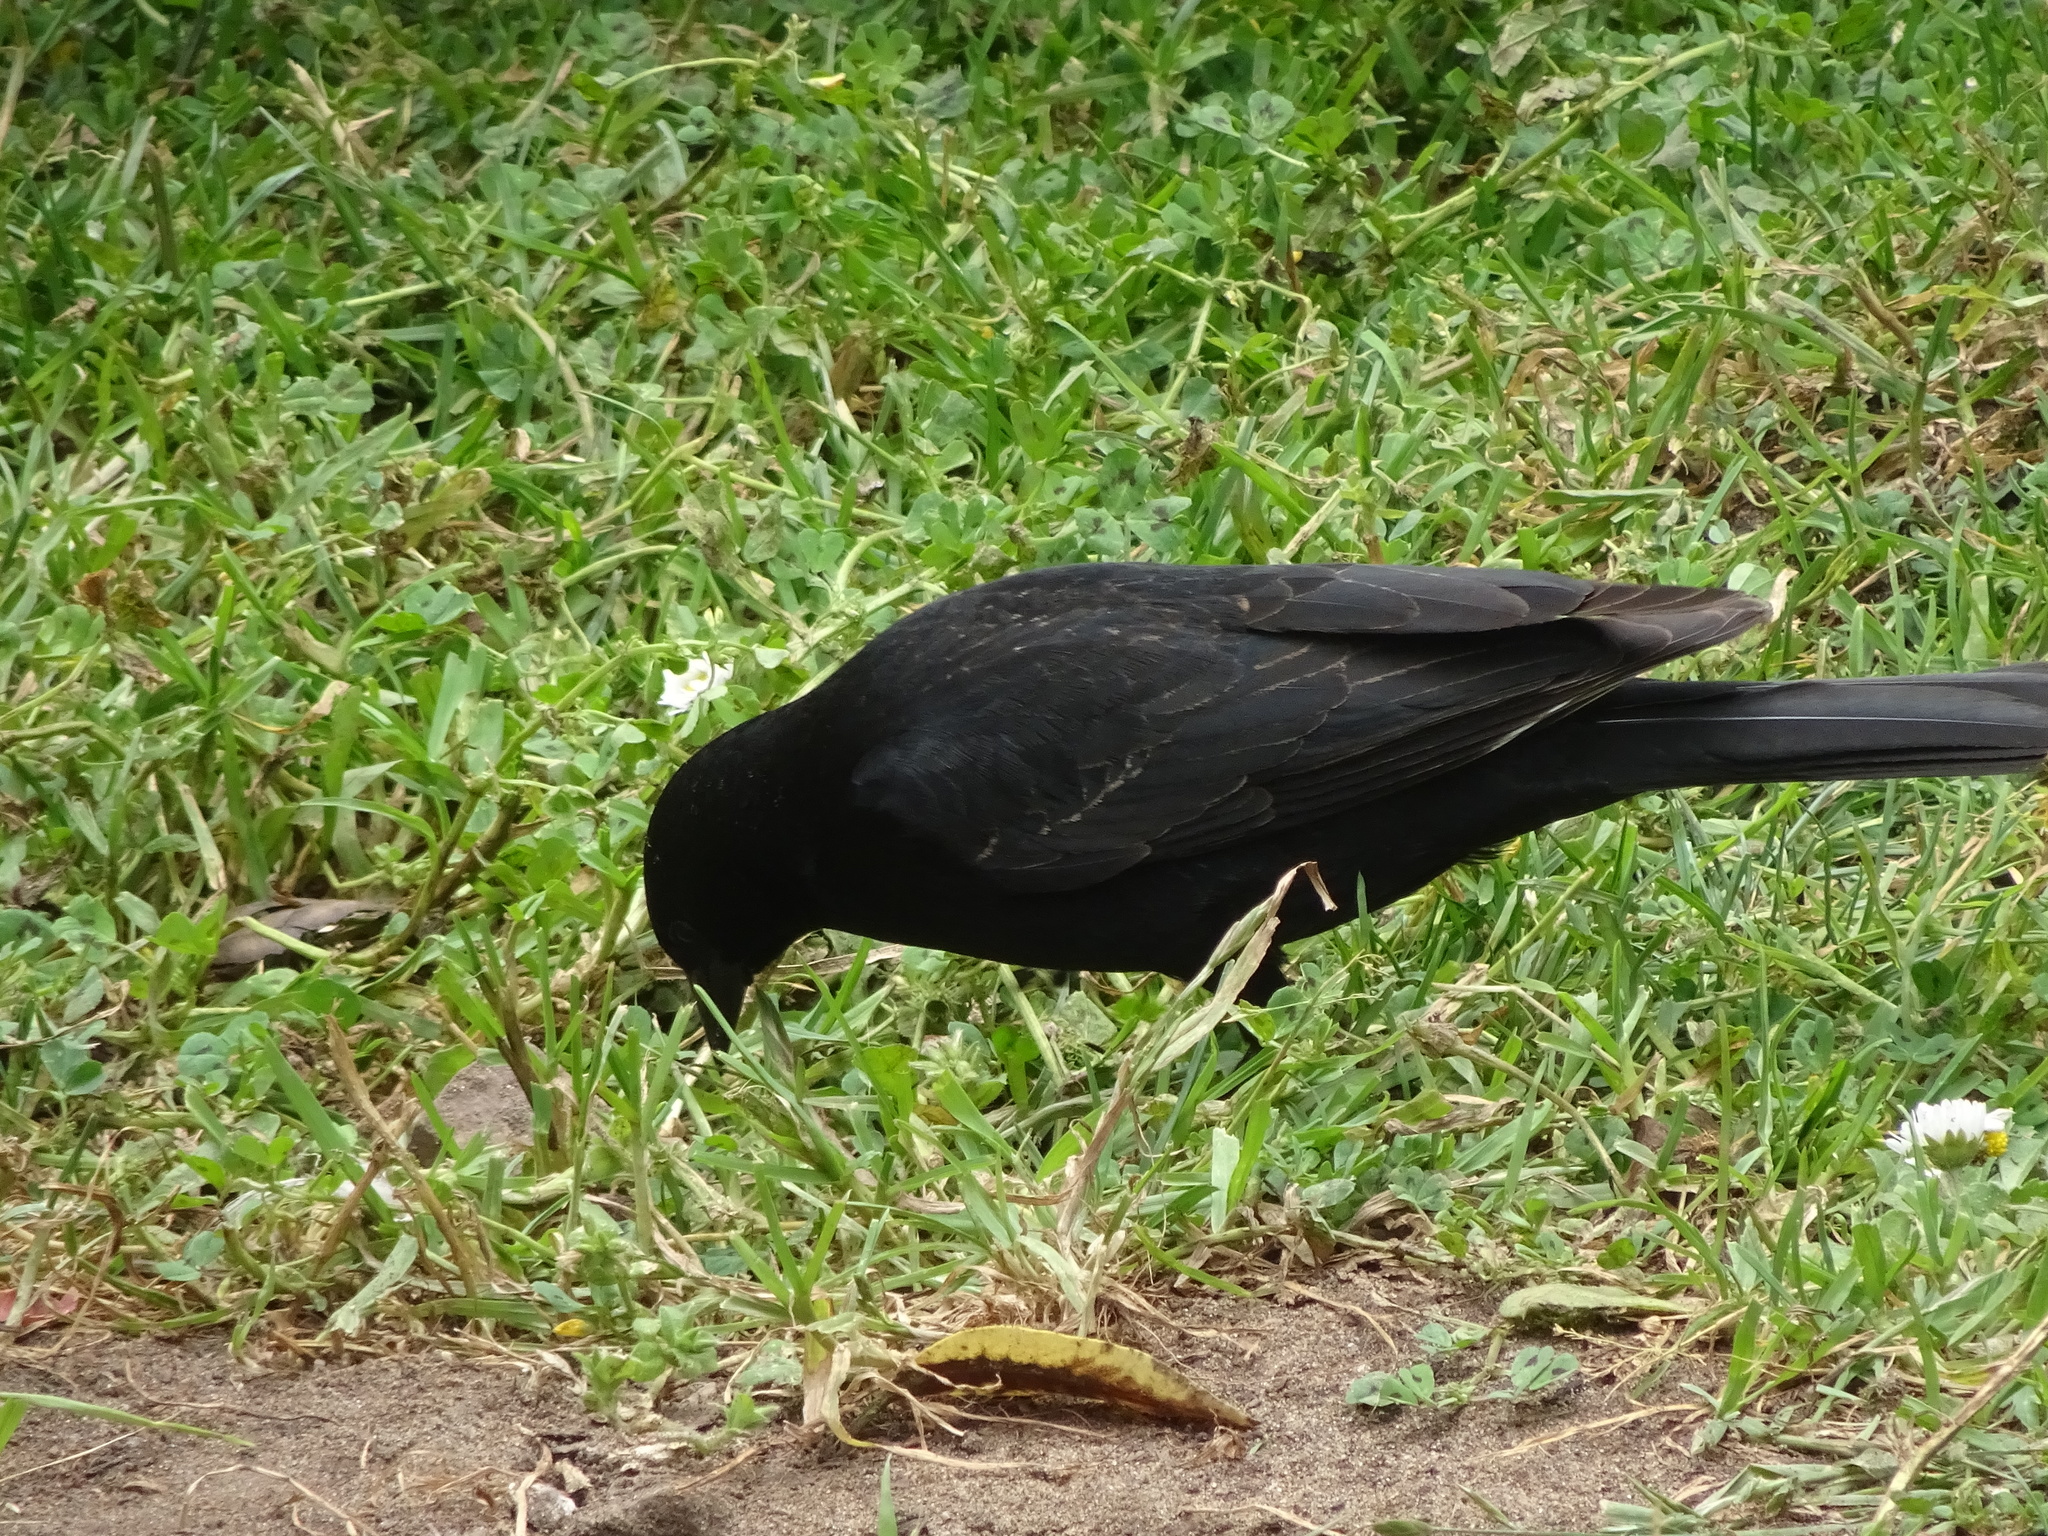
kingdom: Animalia
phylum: Chordata
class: Aves
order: Passeriformes
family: Icteridae
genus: Agelaius
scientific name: Agelaius tricolor
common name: Tricolored blackbird
